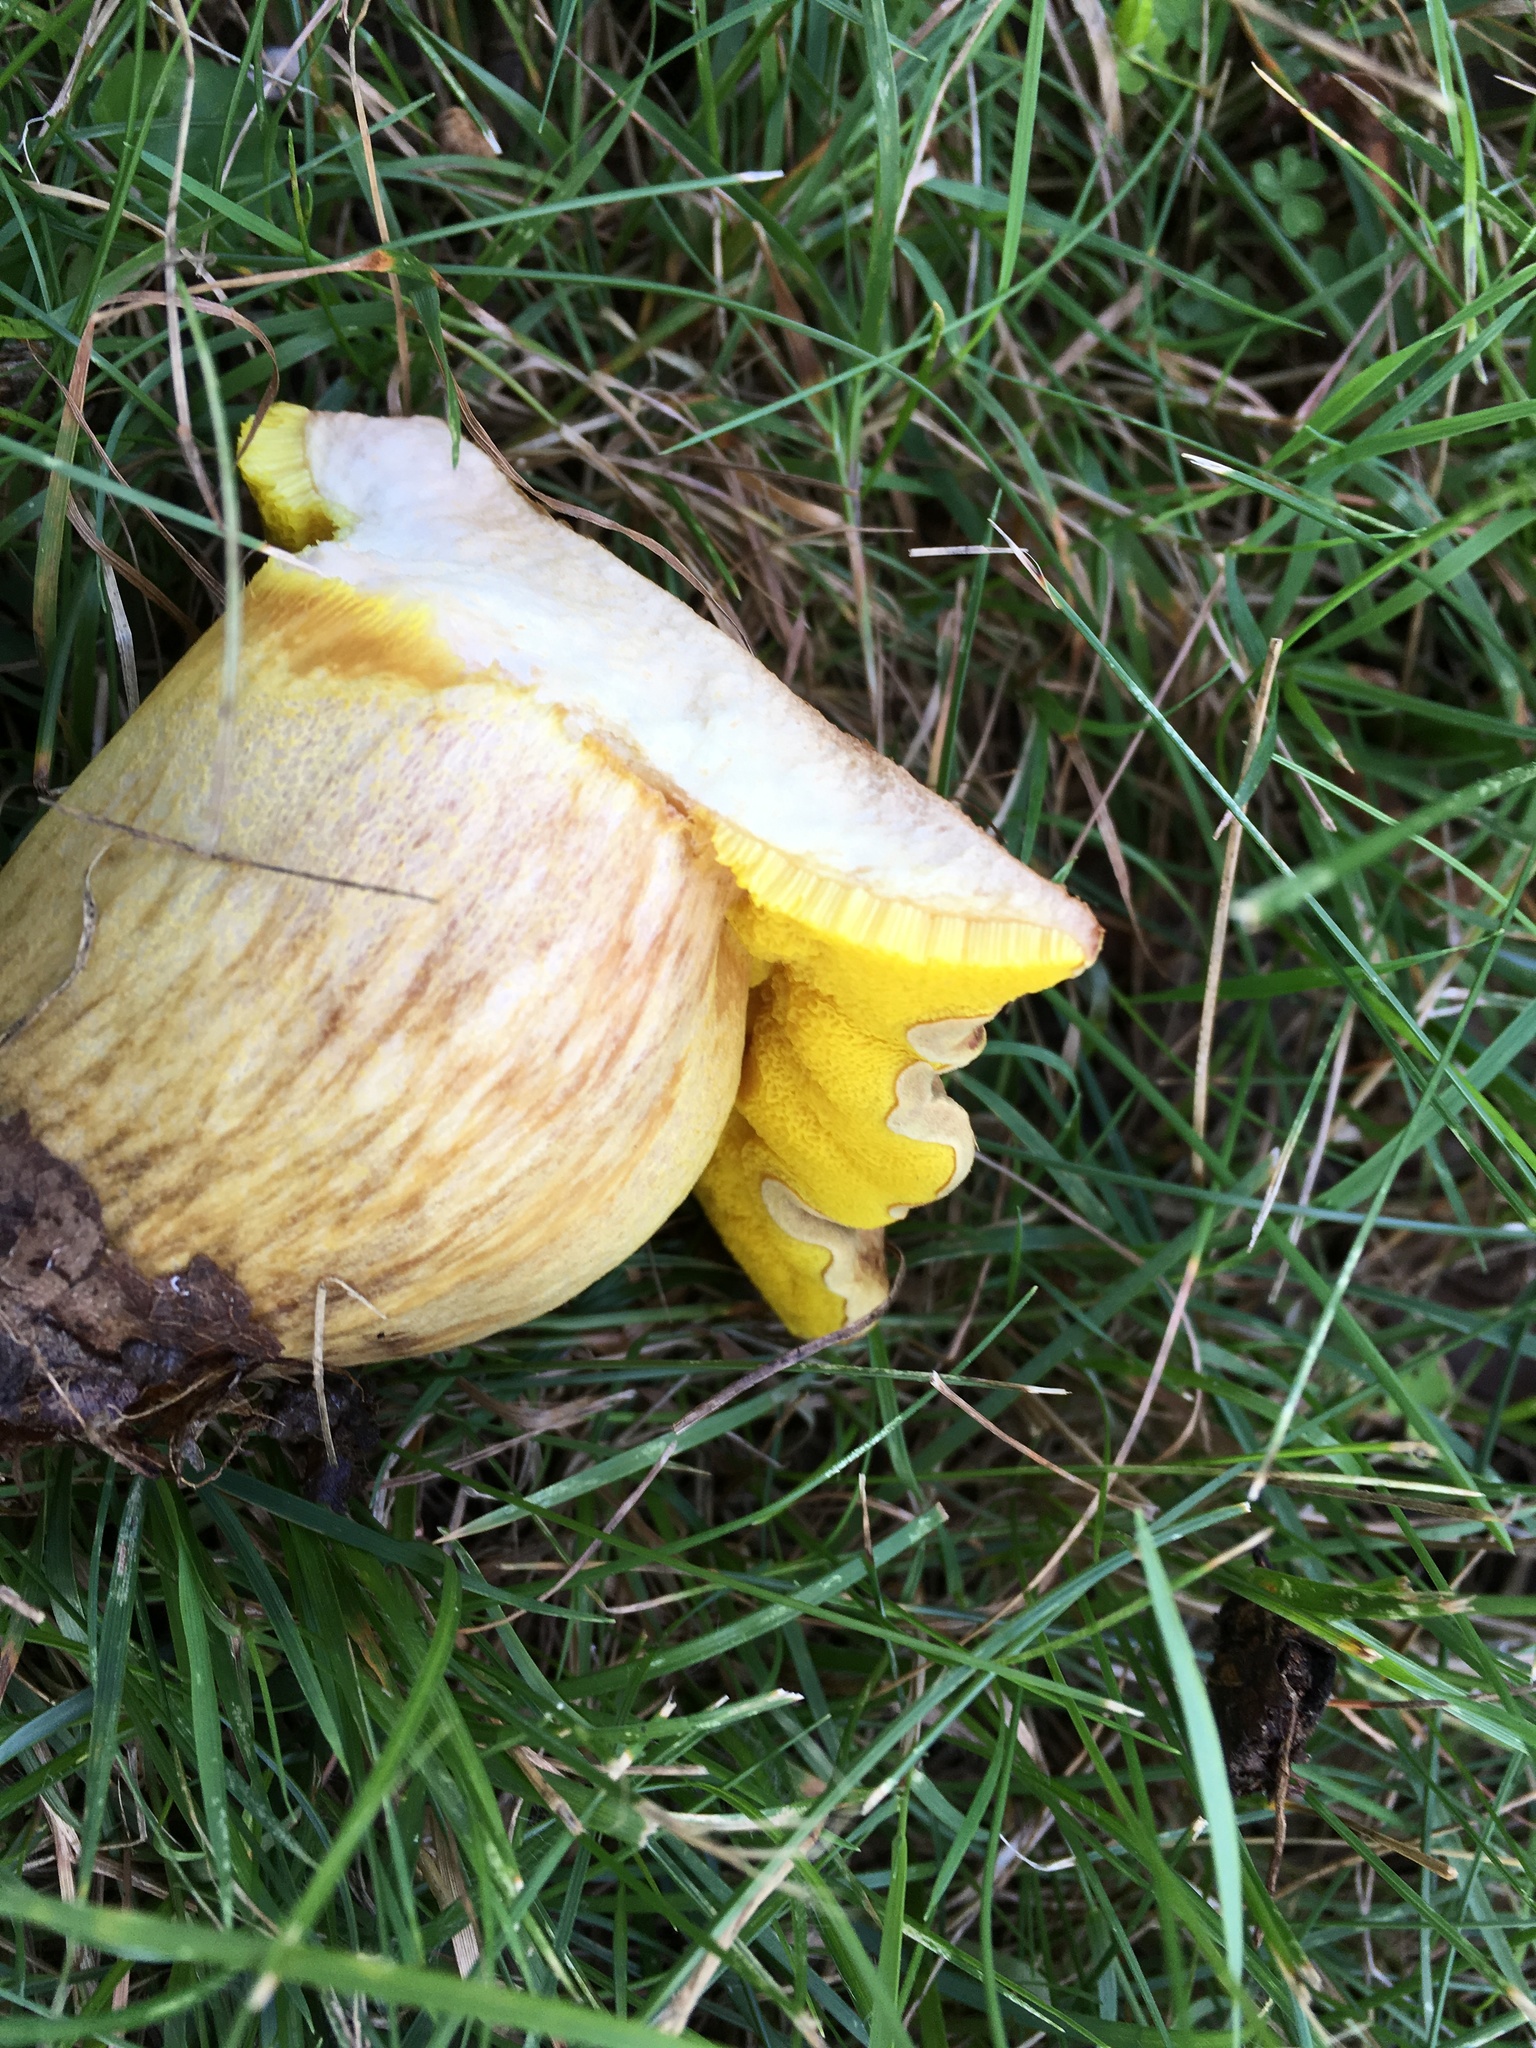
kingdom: Fungi
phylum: Basidiomycota
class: Agaricomycetes
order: Boletales
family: Boletaceae
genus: Aureoboletus
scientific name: Aureoboletus innixus
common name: Clustered brown bolete
